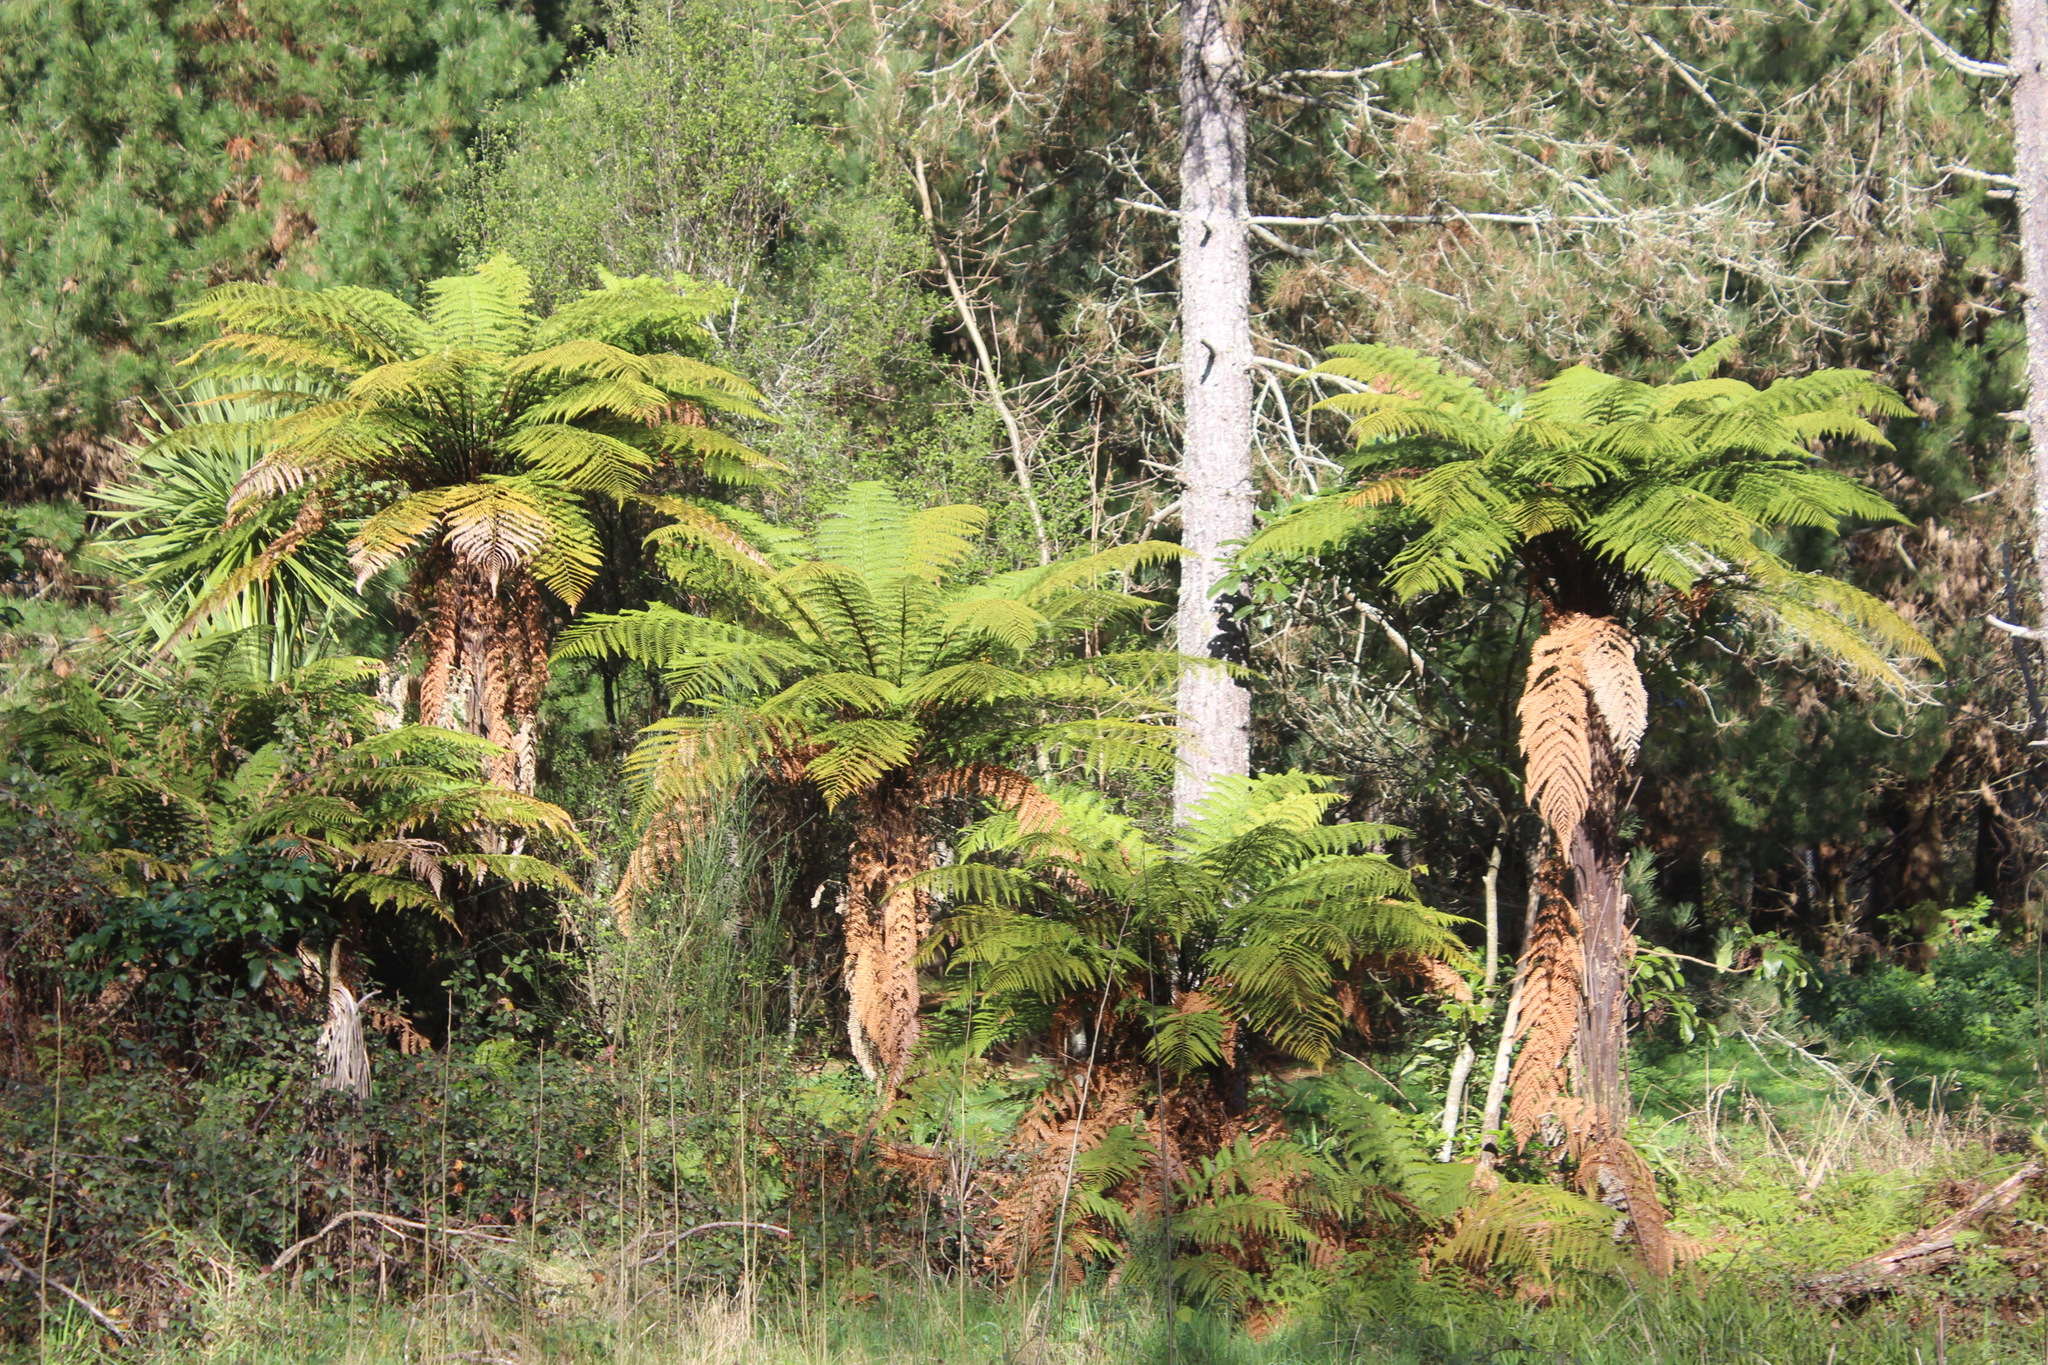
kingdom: Plantae
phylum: Tracheophyta
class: Polypodiopsida
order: Cyatheales
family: Dicksoniaceae
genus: Dicksonia
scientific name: Dicksonia squarrosa
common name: Hard treefern
